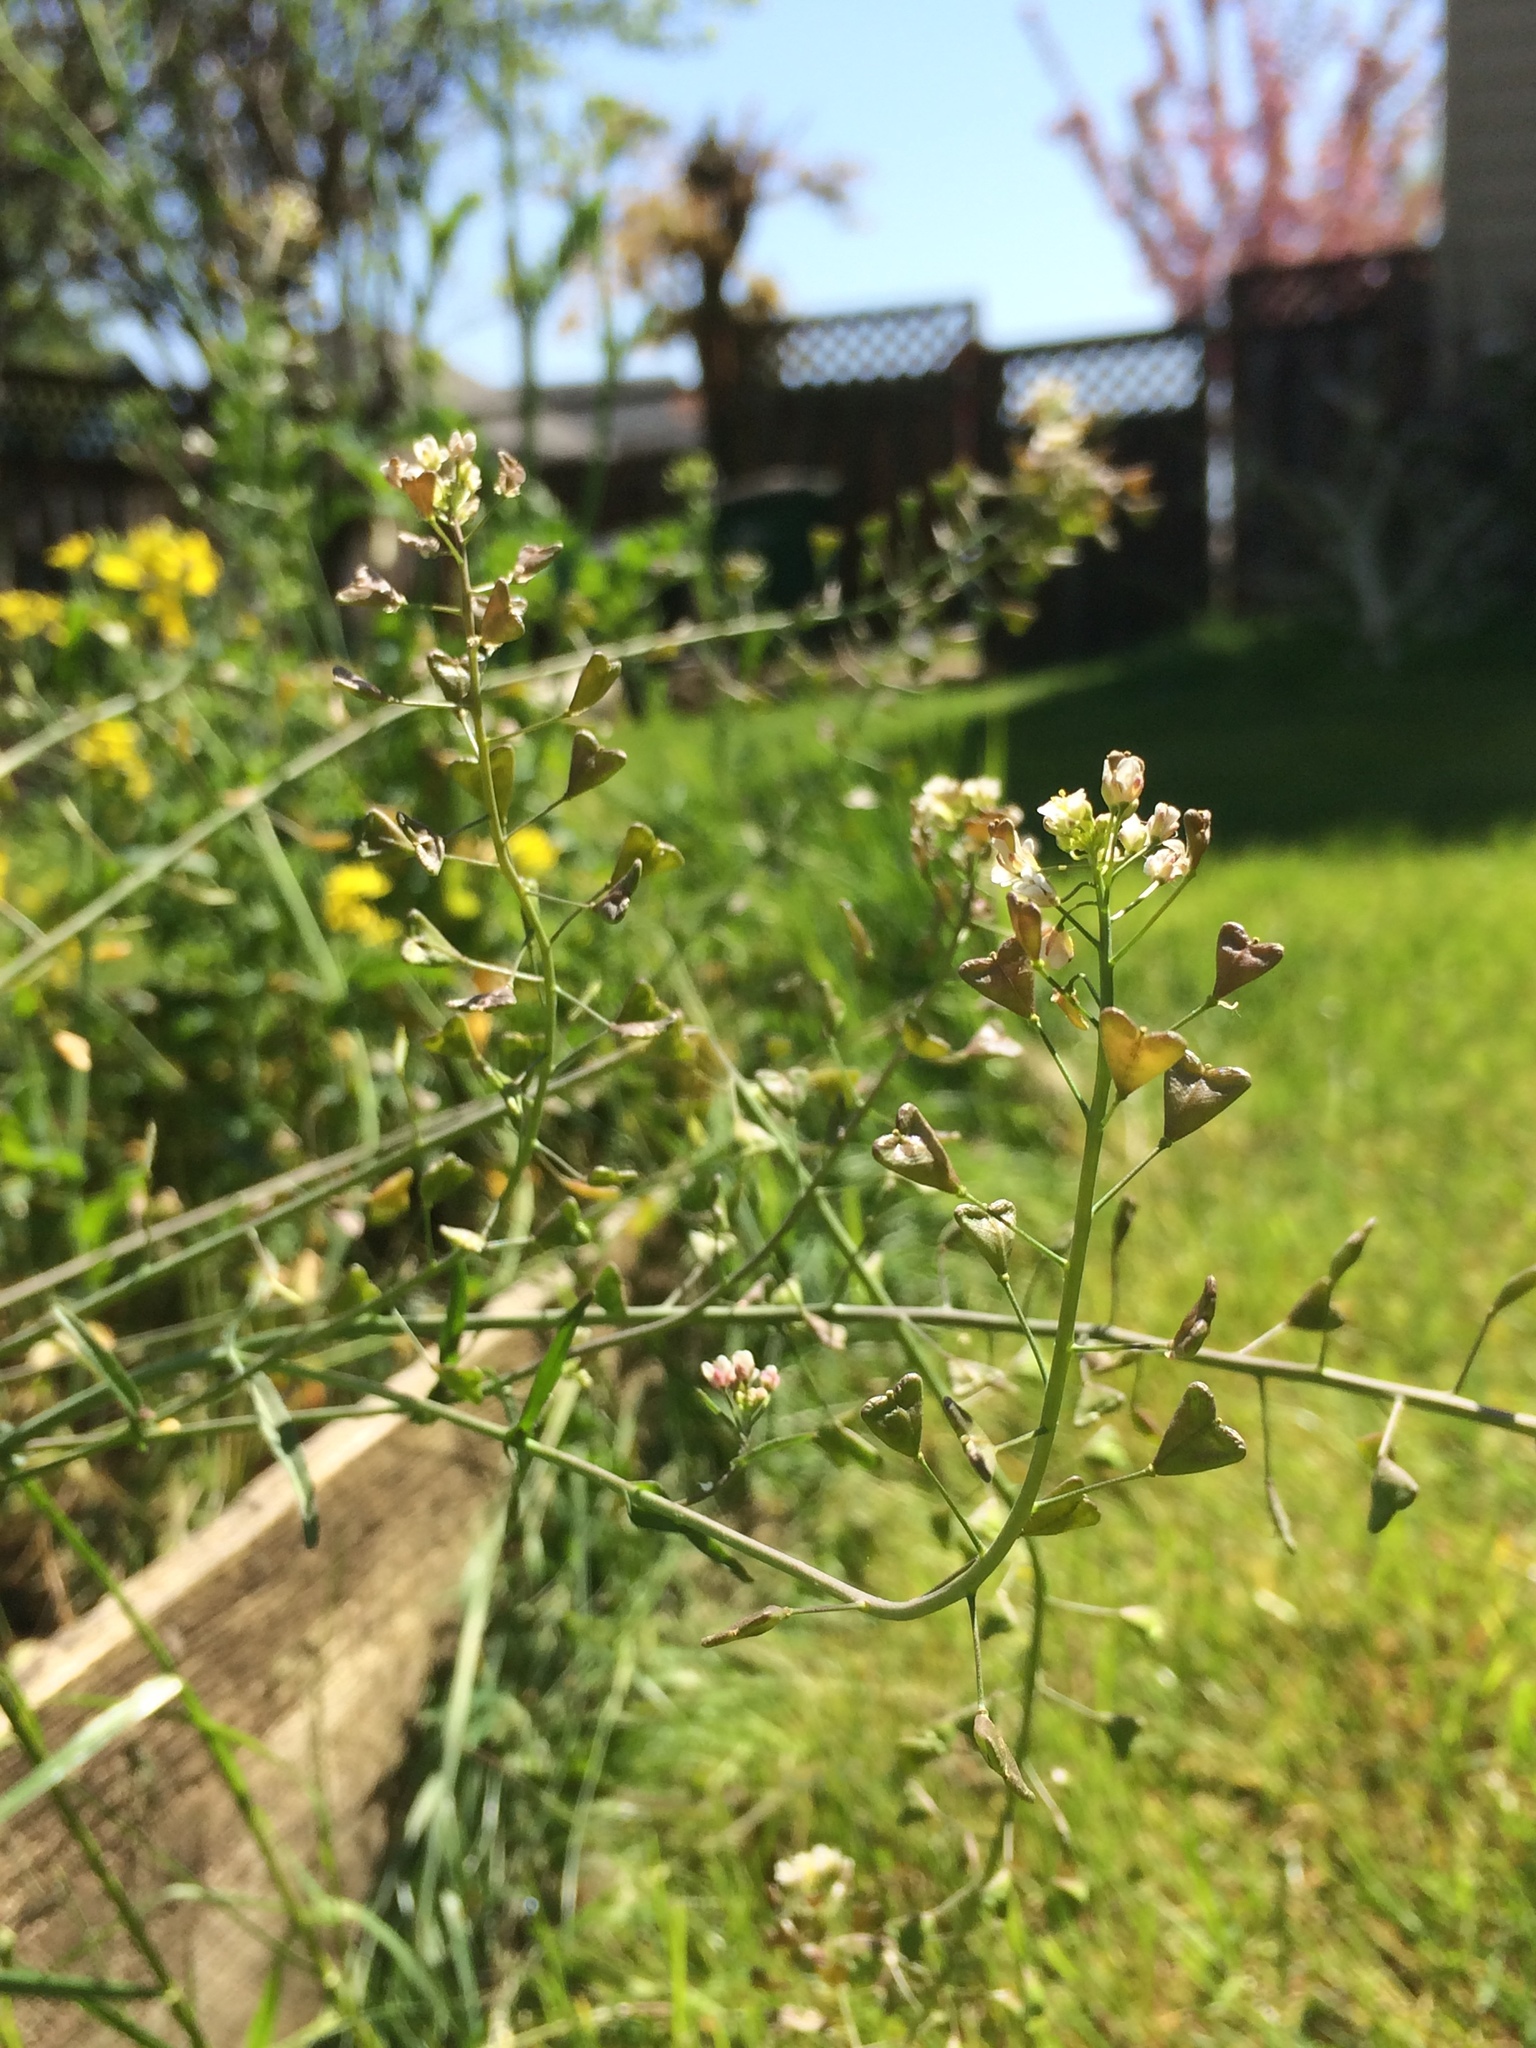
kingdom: Plantae
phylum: Tracheophyta
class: Magnoliopsida
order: Brassicales
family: Brassicaceae
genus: Capsella
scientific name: Capsella bursa-pastoris
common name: Shepherd's purse
